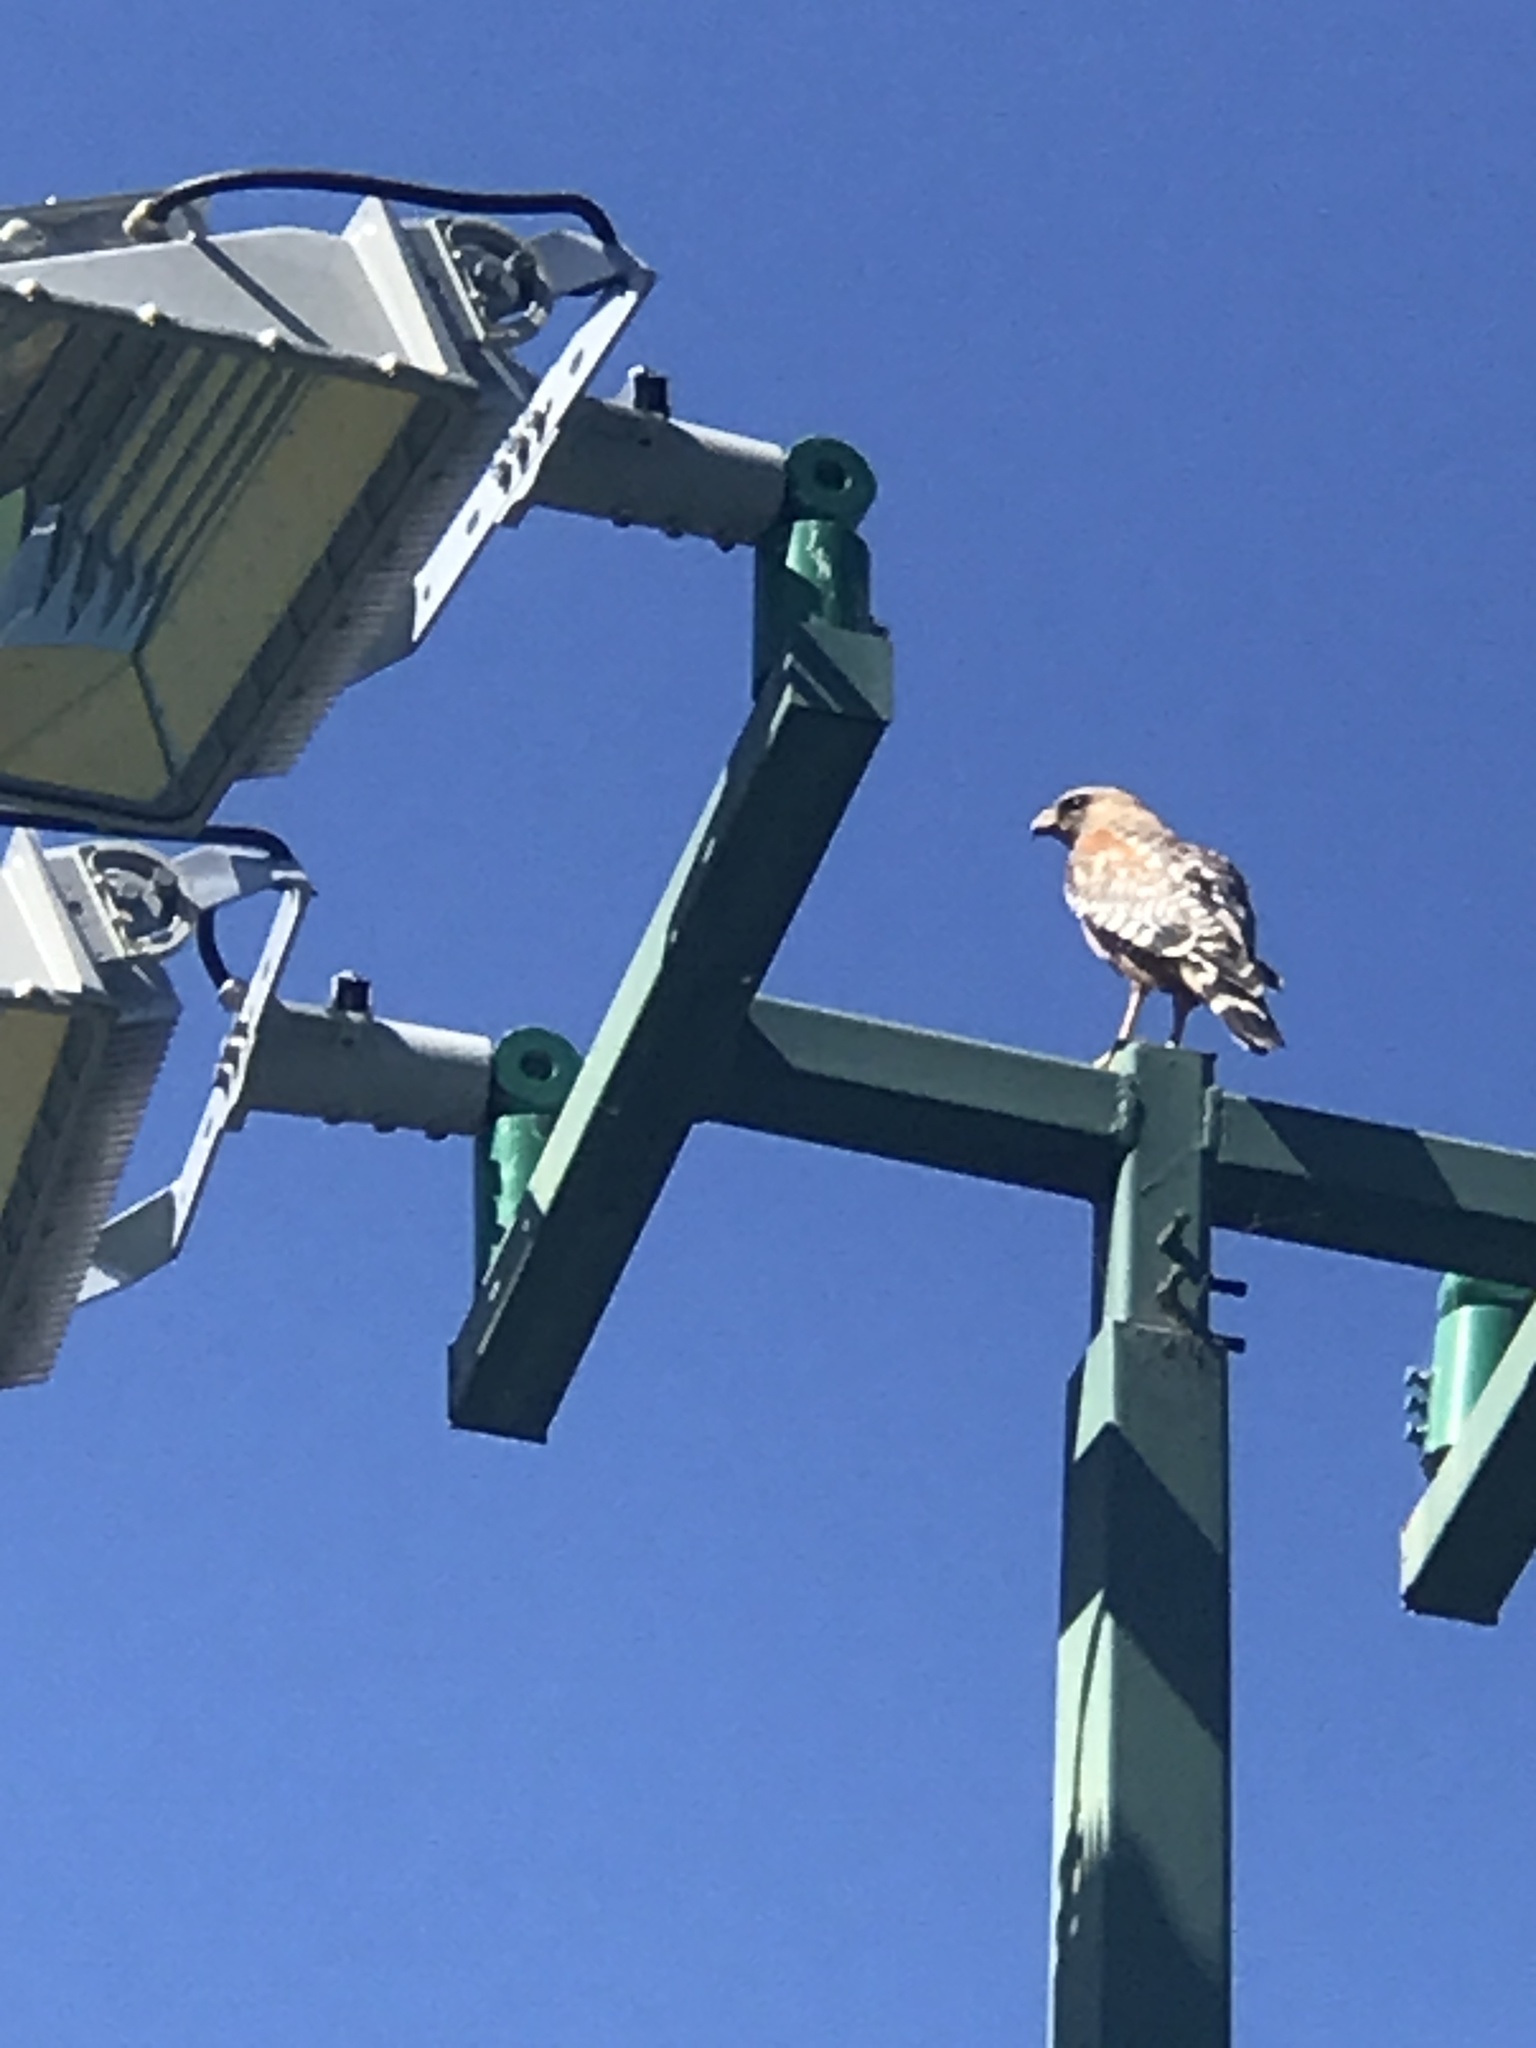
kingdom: Animalia
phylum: Chordata
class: Aves
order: Accipitriformes
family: Accipitridae
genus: Buteo
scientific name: Buteo lineatus
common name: Red-shouldered hawk
